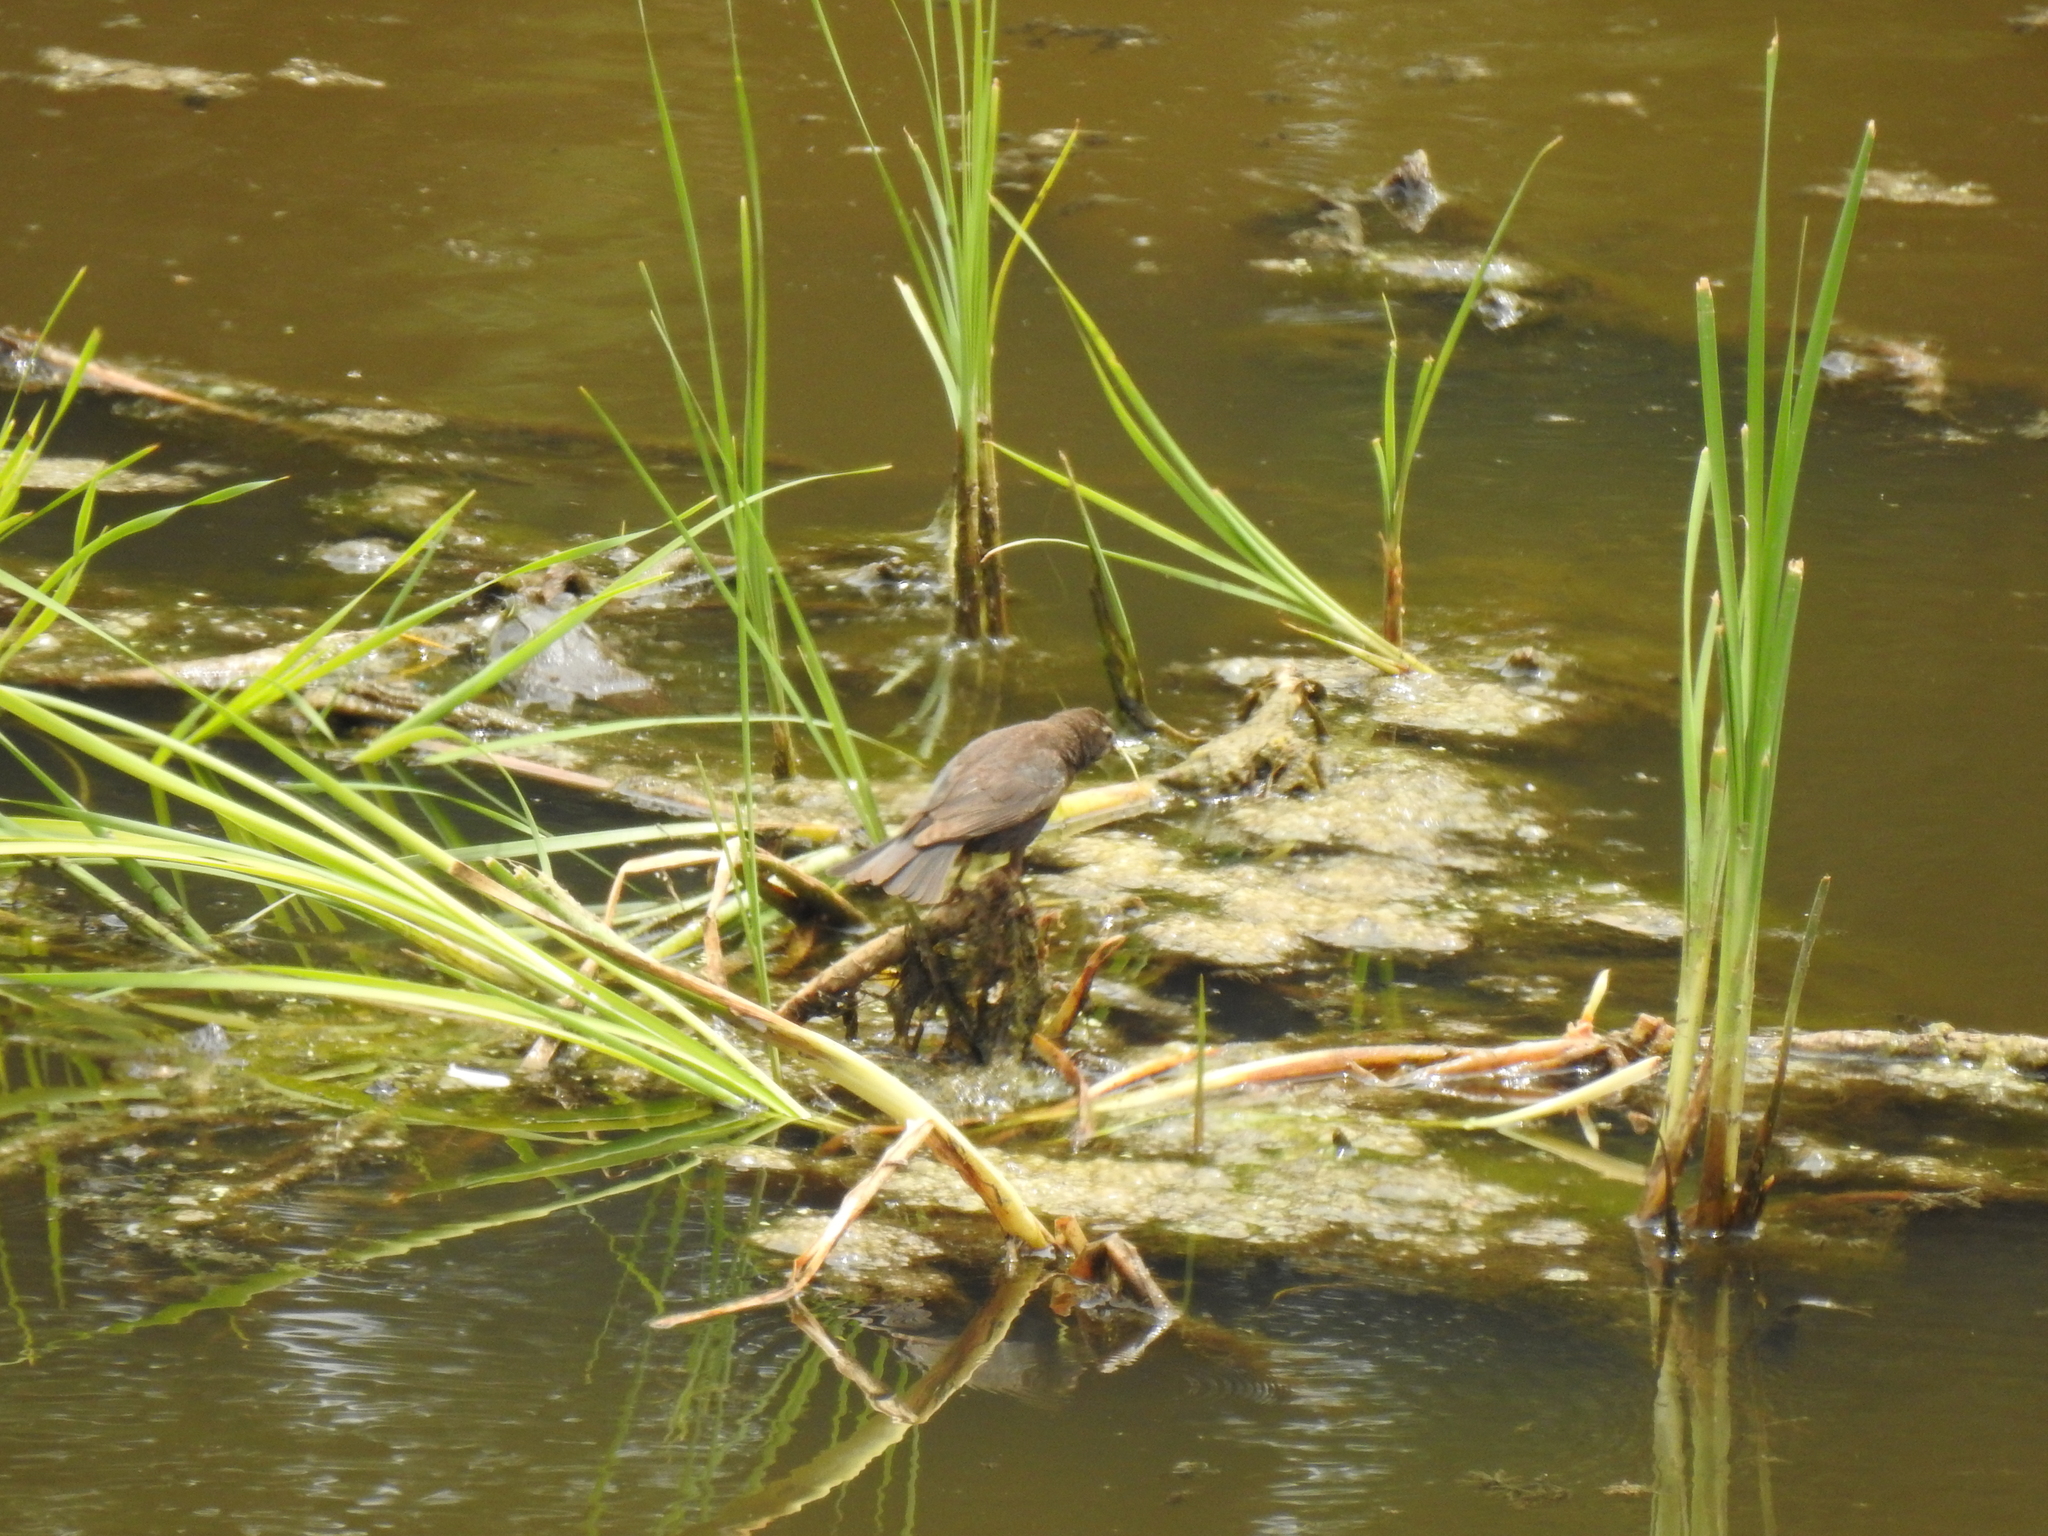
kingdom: Animalia
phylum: Chordata
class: Aves
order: Passeriformes
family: Icteridae
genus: Agelaius
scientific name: Agelaius phoeniceus
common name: Red-winged blackbird
